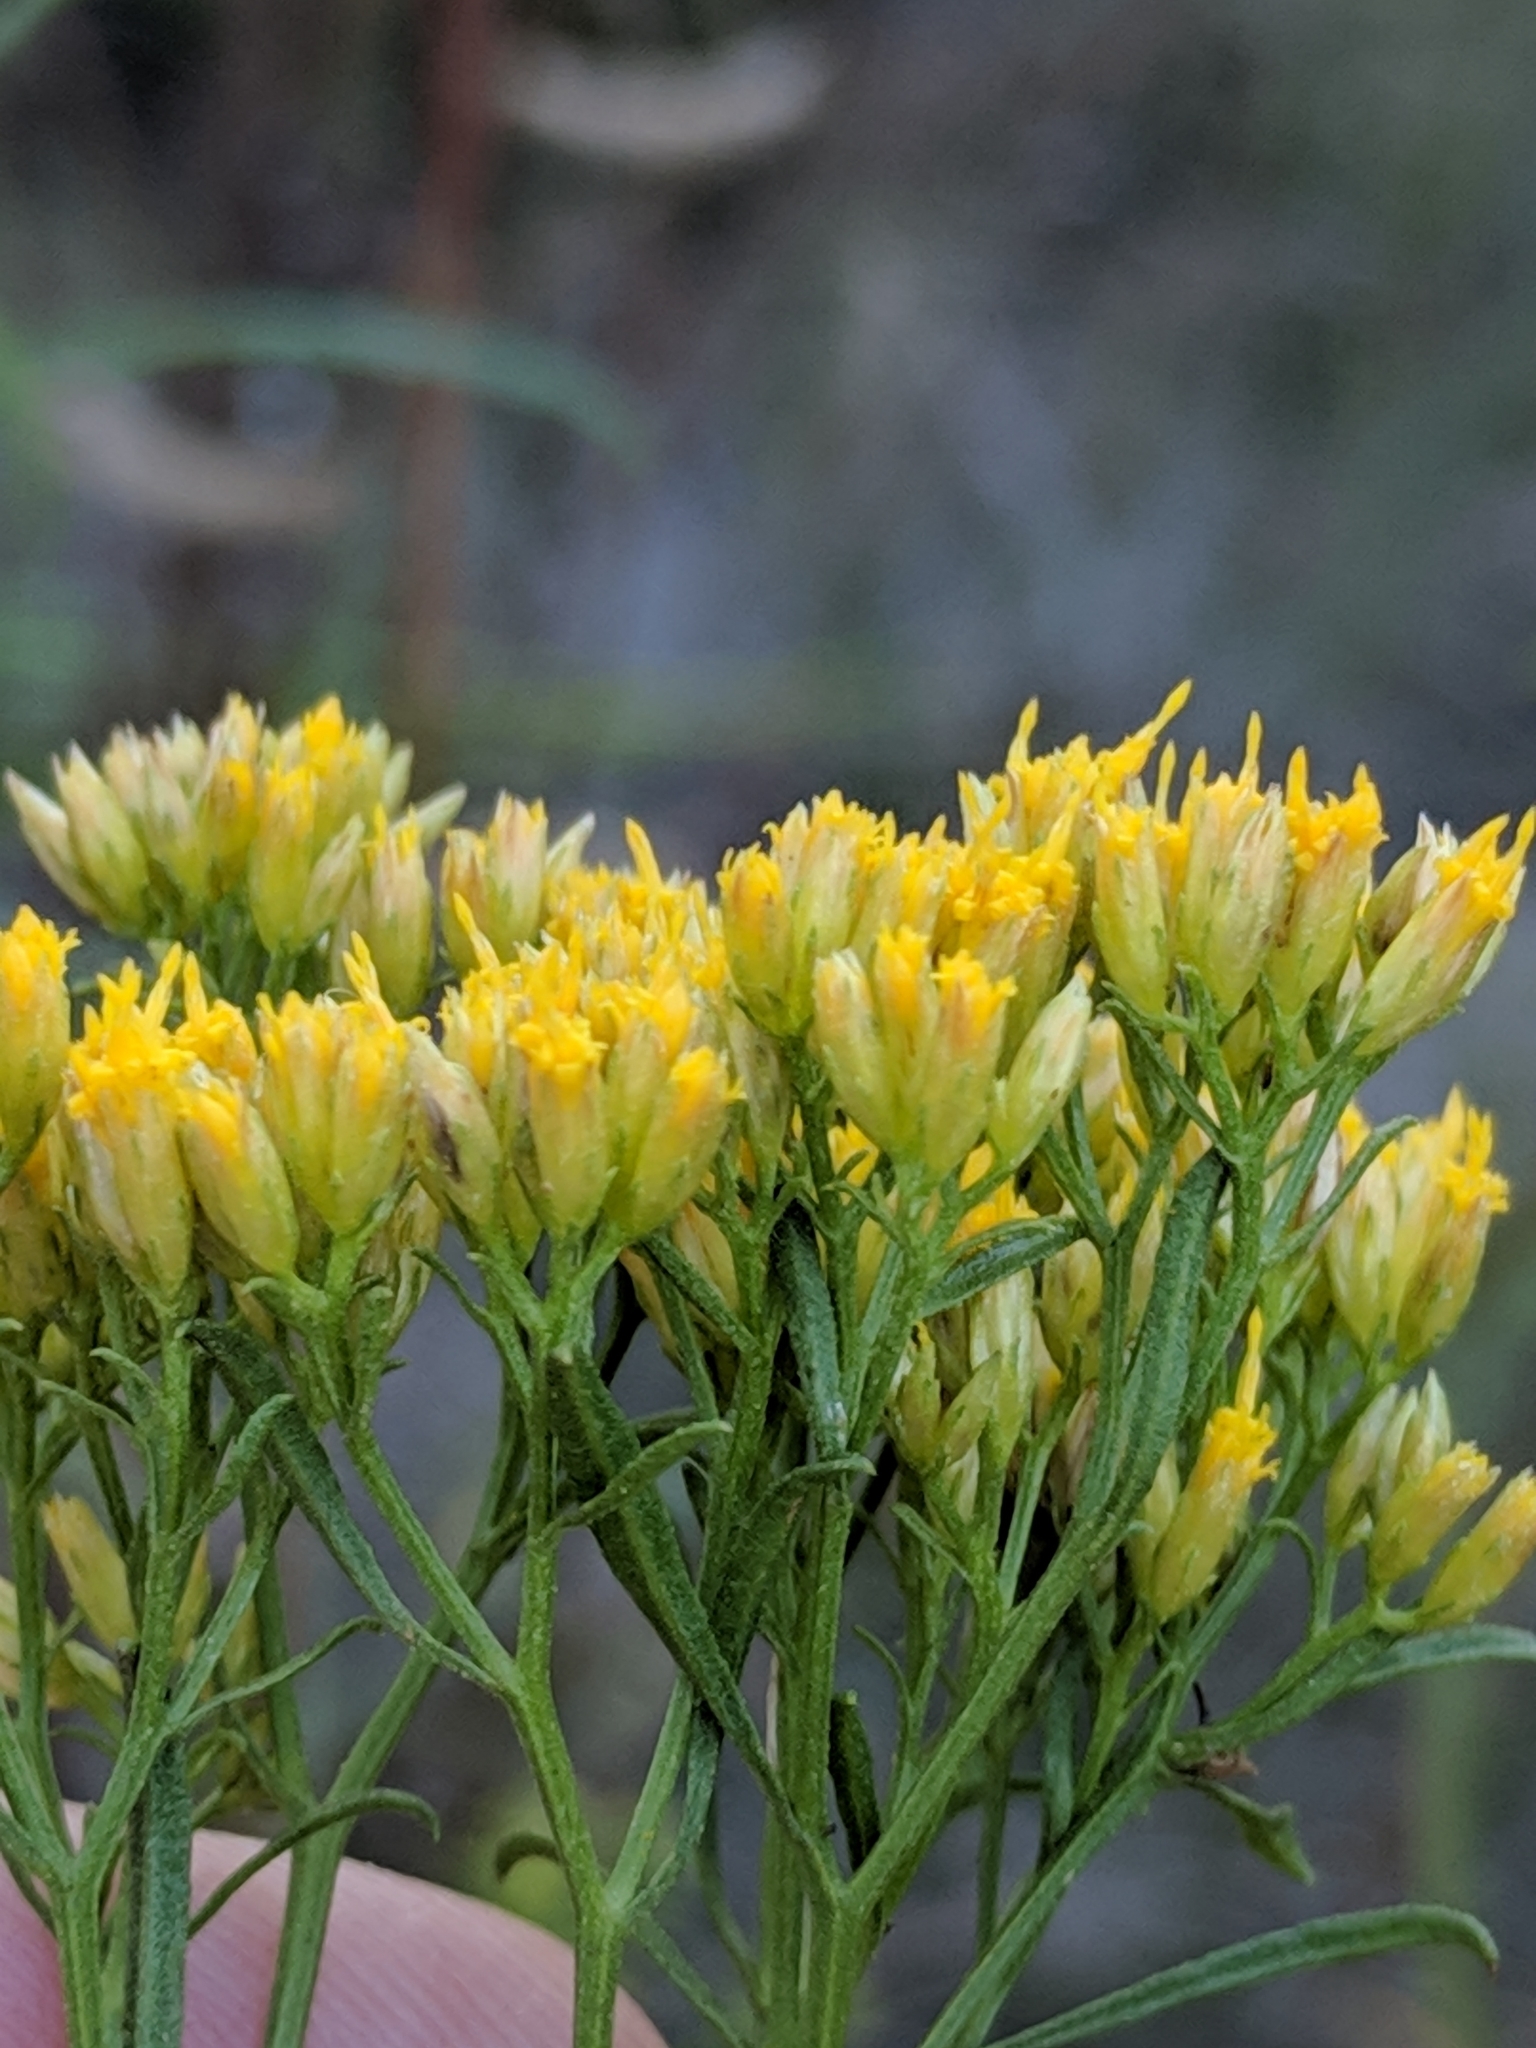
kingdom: Plantae
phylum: Tracheophyta
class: Magnoliopsida
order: Asterales
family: Asteraceae
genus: Gymnosperma
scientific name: Gymnosperma glutinosum
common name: Gumhead
